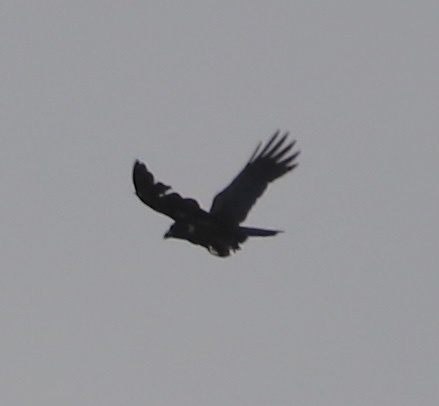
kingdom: Animalia
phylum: Chordata
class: Aves
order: Passeriformes
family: Corvidae
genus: Corvus
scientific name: Corvus leucognaphalus
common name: White-necked crow
